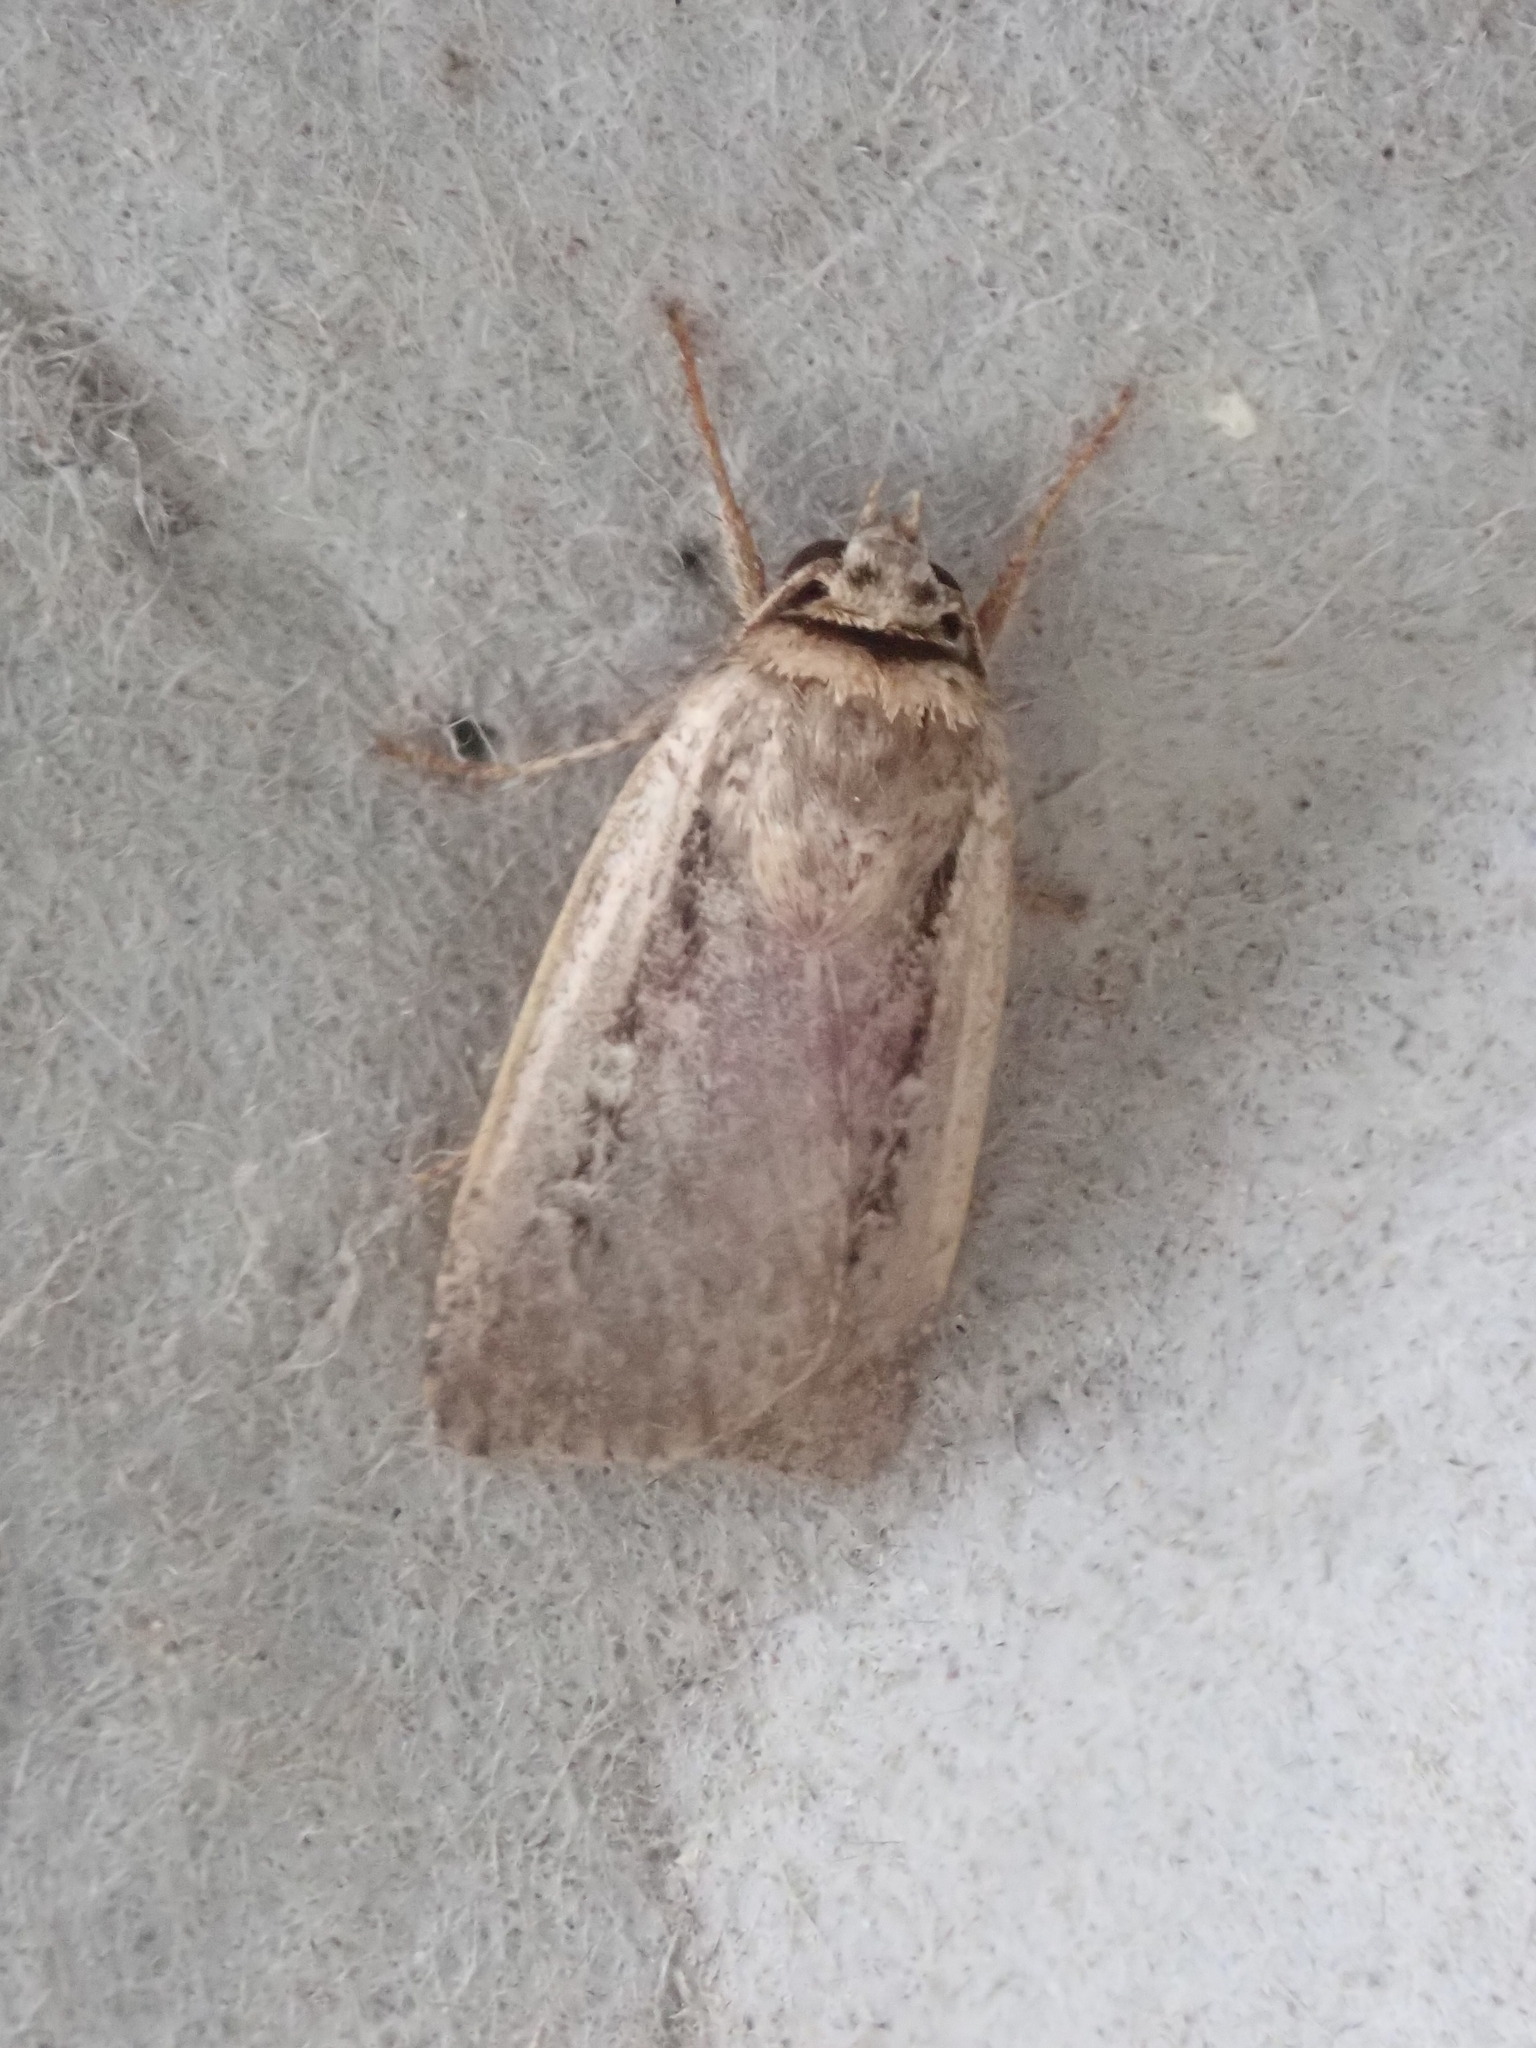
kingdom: Animalia
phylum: Arthropoda
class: Insecta
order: Lepidoptera
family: Noctuidae
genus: Ochropleura
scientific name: Ochropleura implecta
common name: Flame-shouldered dart
